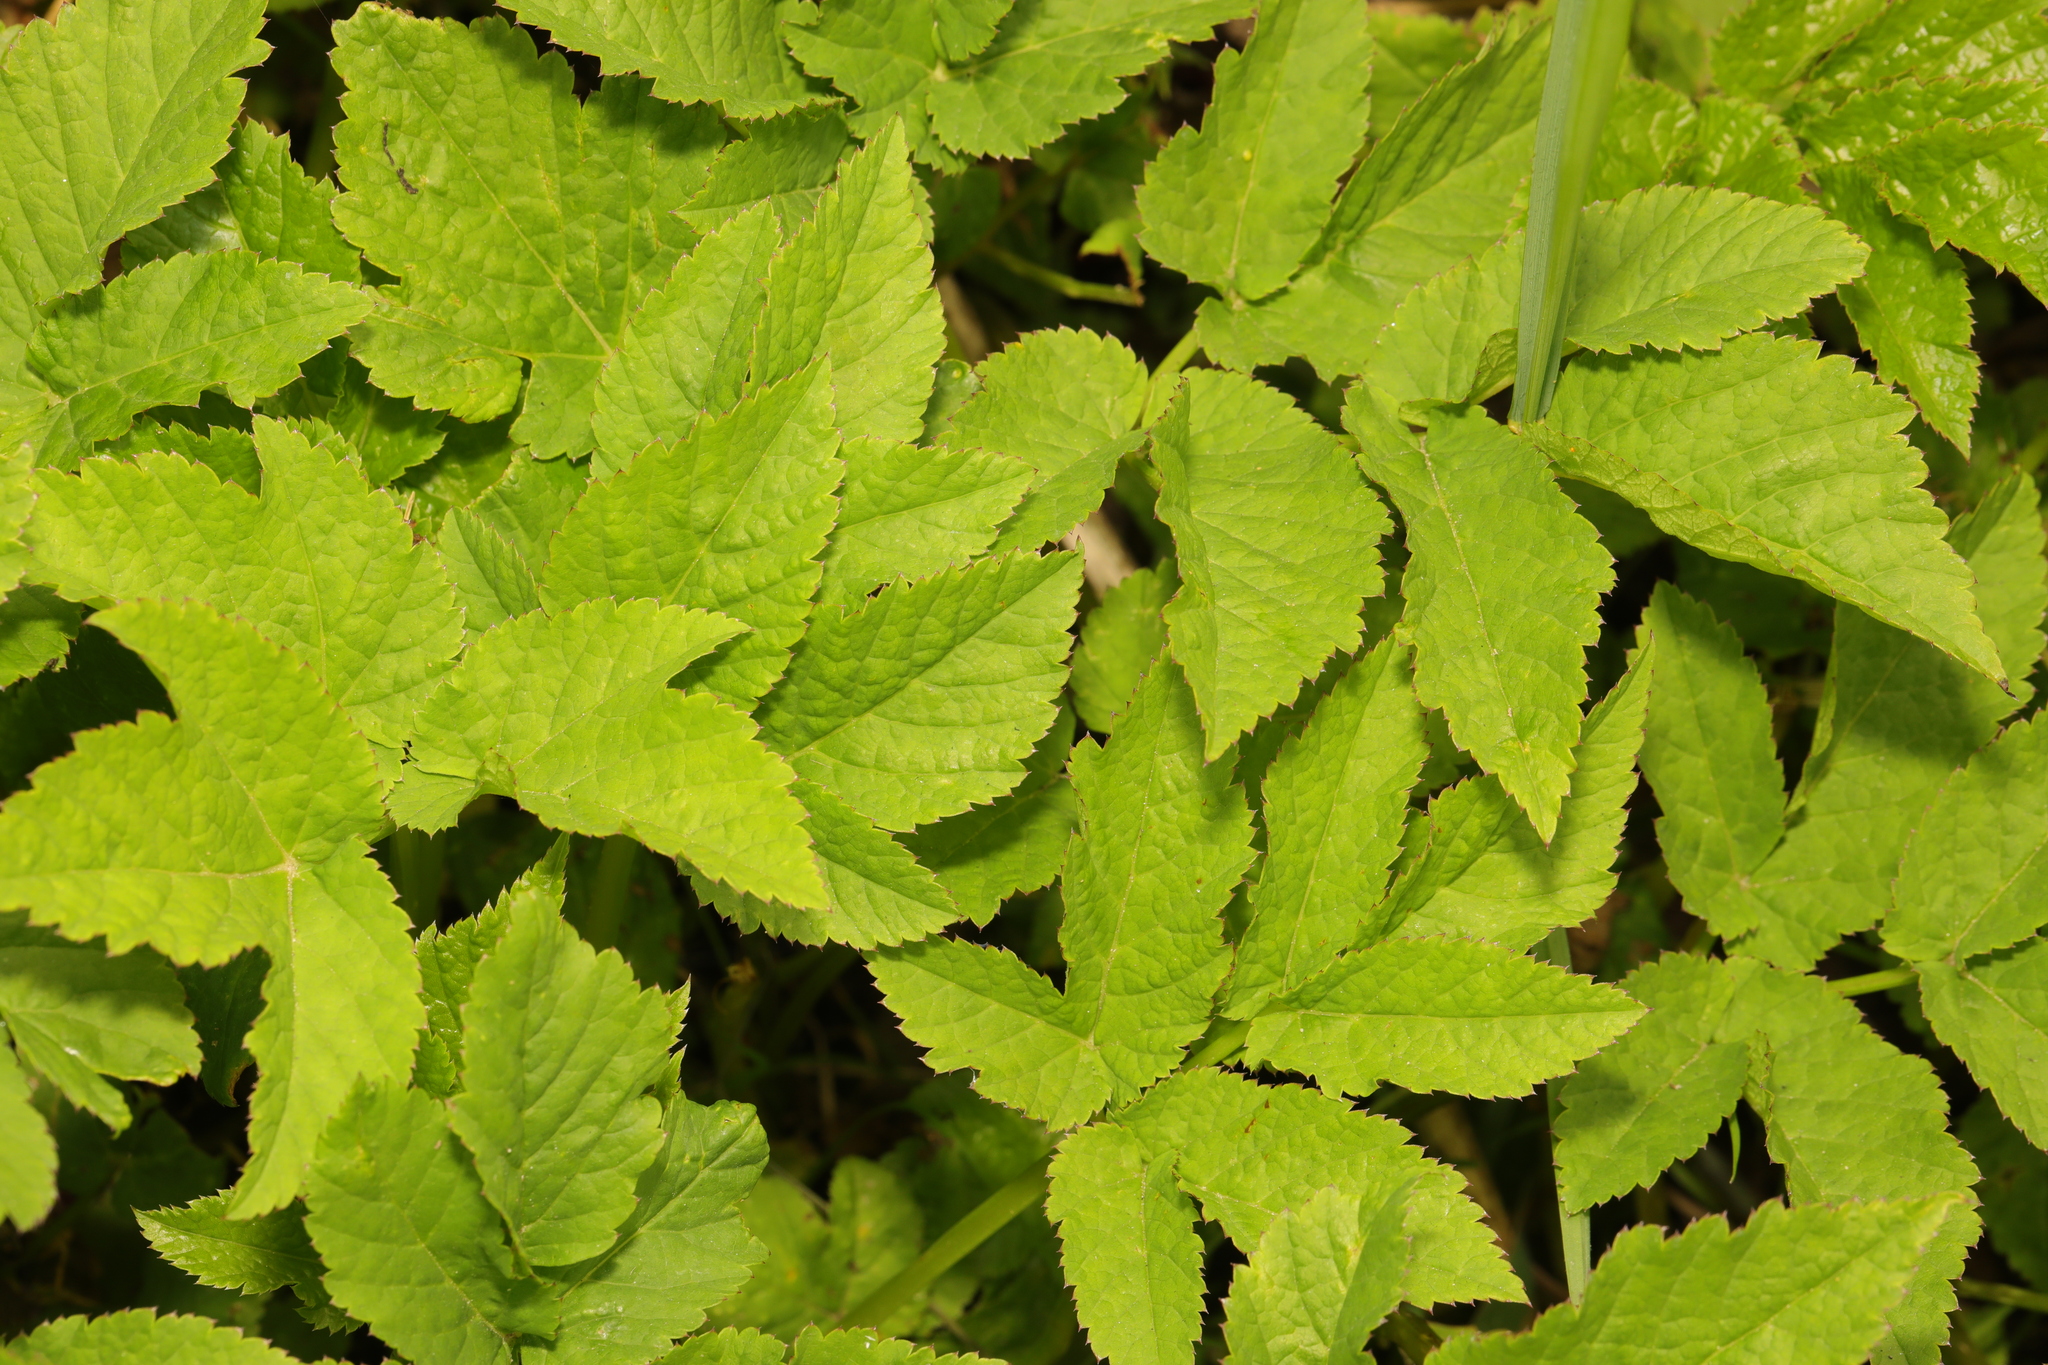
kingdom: Plantae
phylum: Tracheophyta
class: Magnoliopsida
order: Apiales
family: Apiaceae
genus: Aegopodium
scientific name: Aegopodium podagraria
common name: Ground-elder
